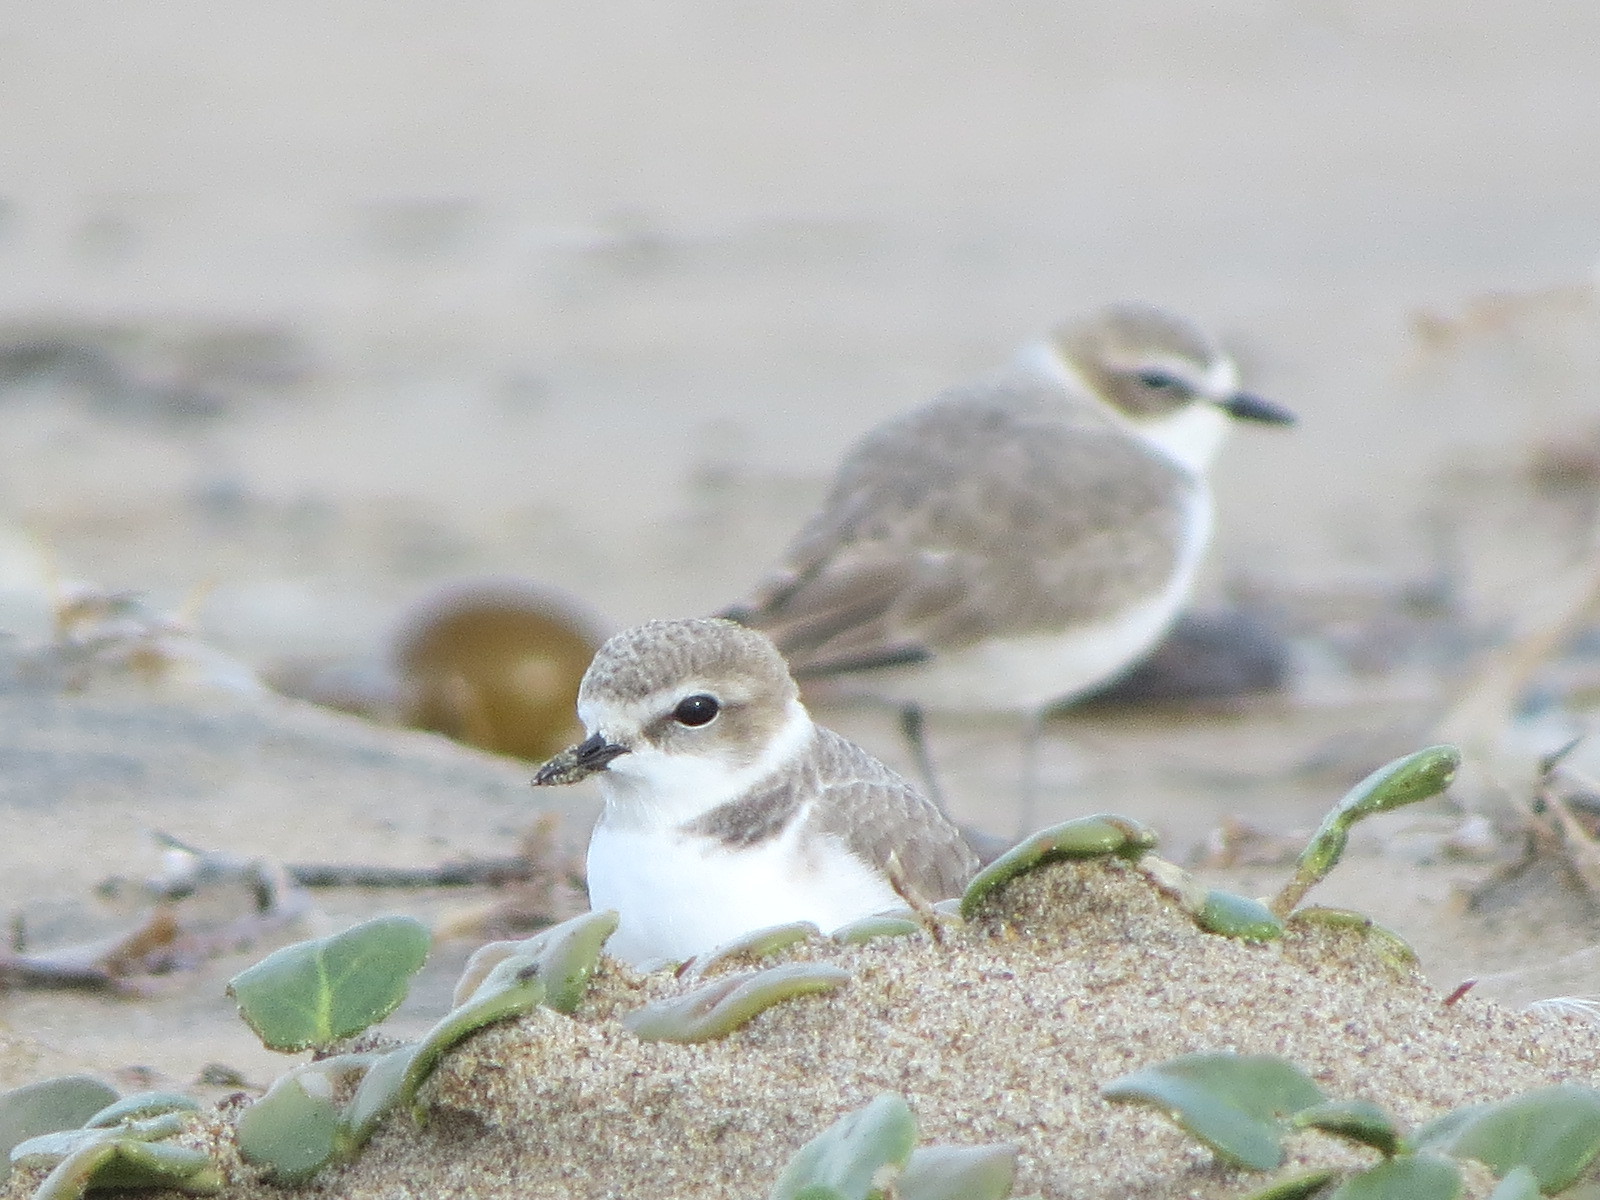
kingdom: Animalia
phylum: Chordata
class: Aves
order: Charadriiformes
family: Charadriidae
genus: Anarhynchus
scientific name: Anarhynchus
